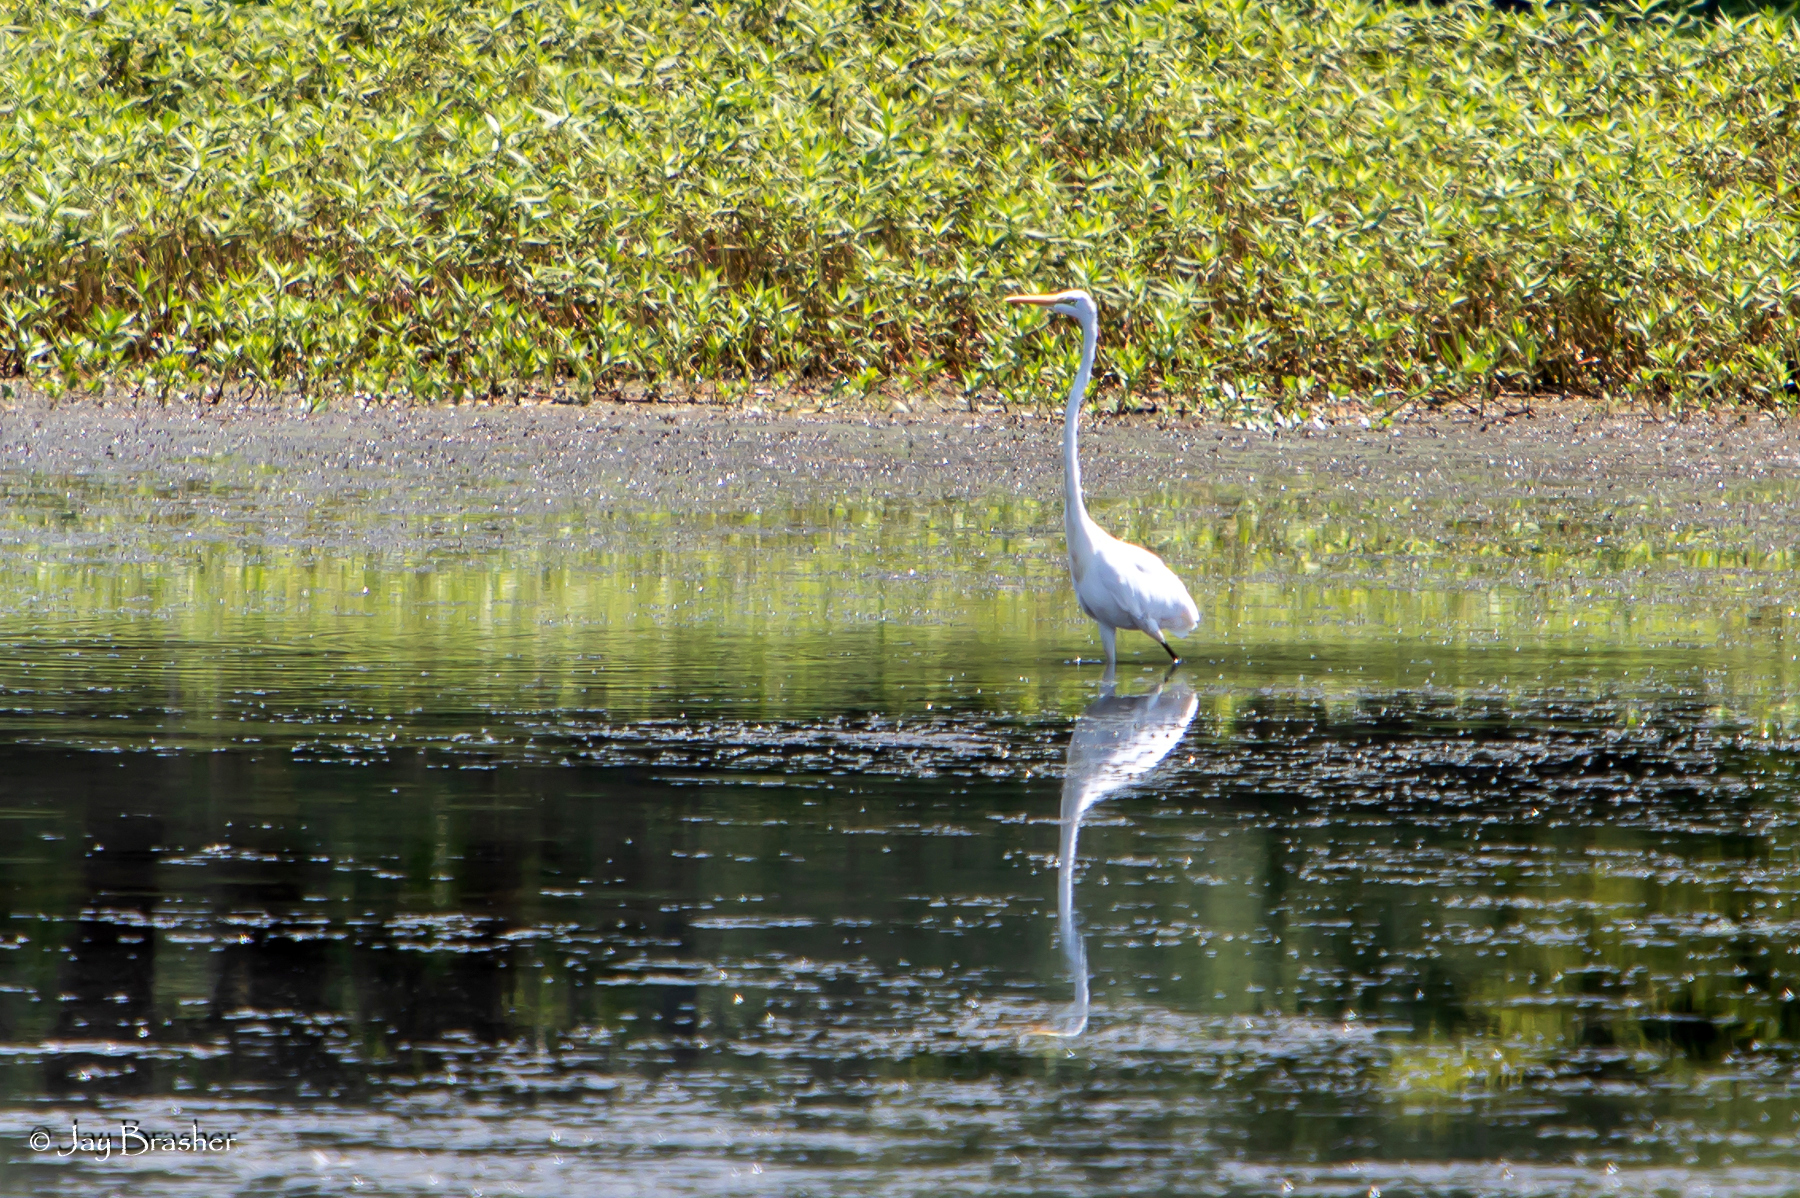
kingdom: Animalia
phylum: Chordata
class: Aves
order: Pelecaniformes
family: Ardeidae
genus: Ardea
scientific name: Ardea alba
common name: Great egret
